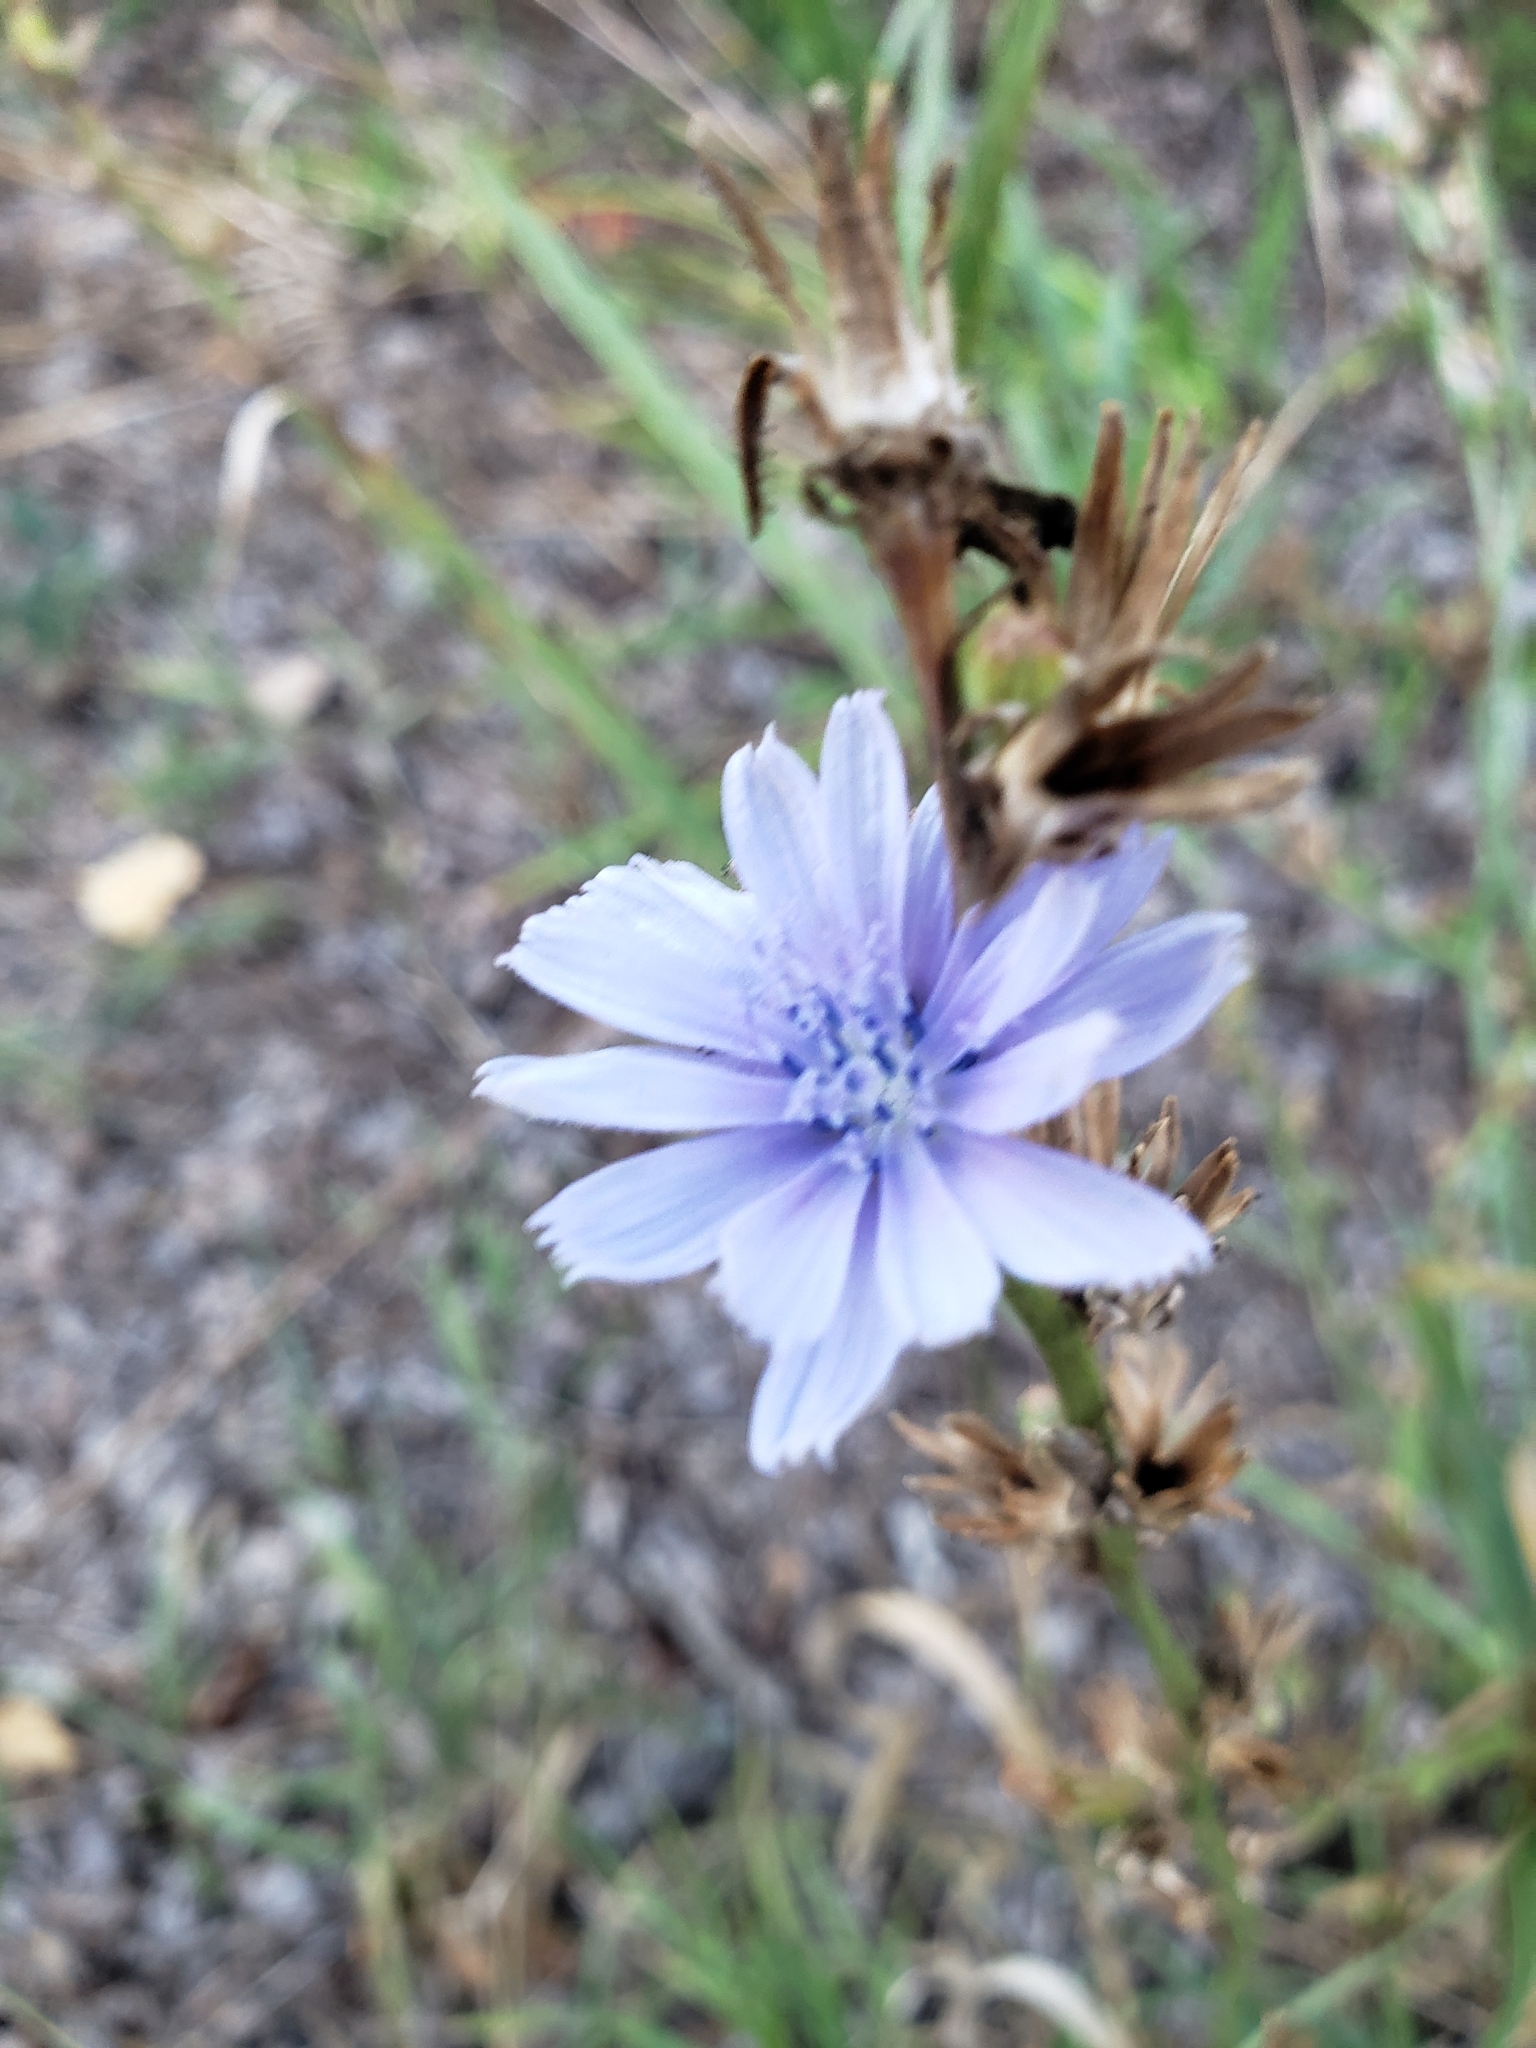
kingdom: Plantae
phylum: Tracheophyta
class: Magnoliopsida
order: Asterales
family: Asteraceae
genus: Cichorium
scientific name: Cichorium intybus
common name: Chicory
